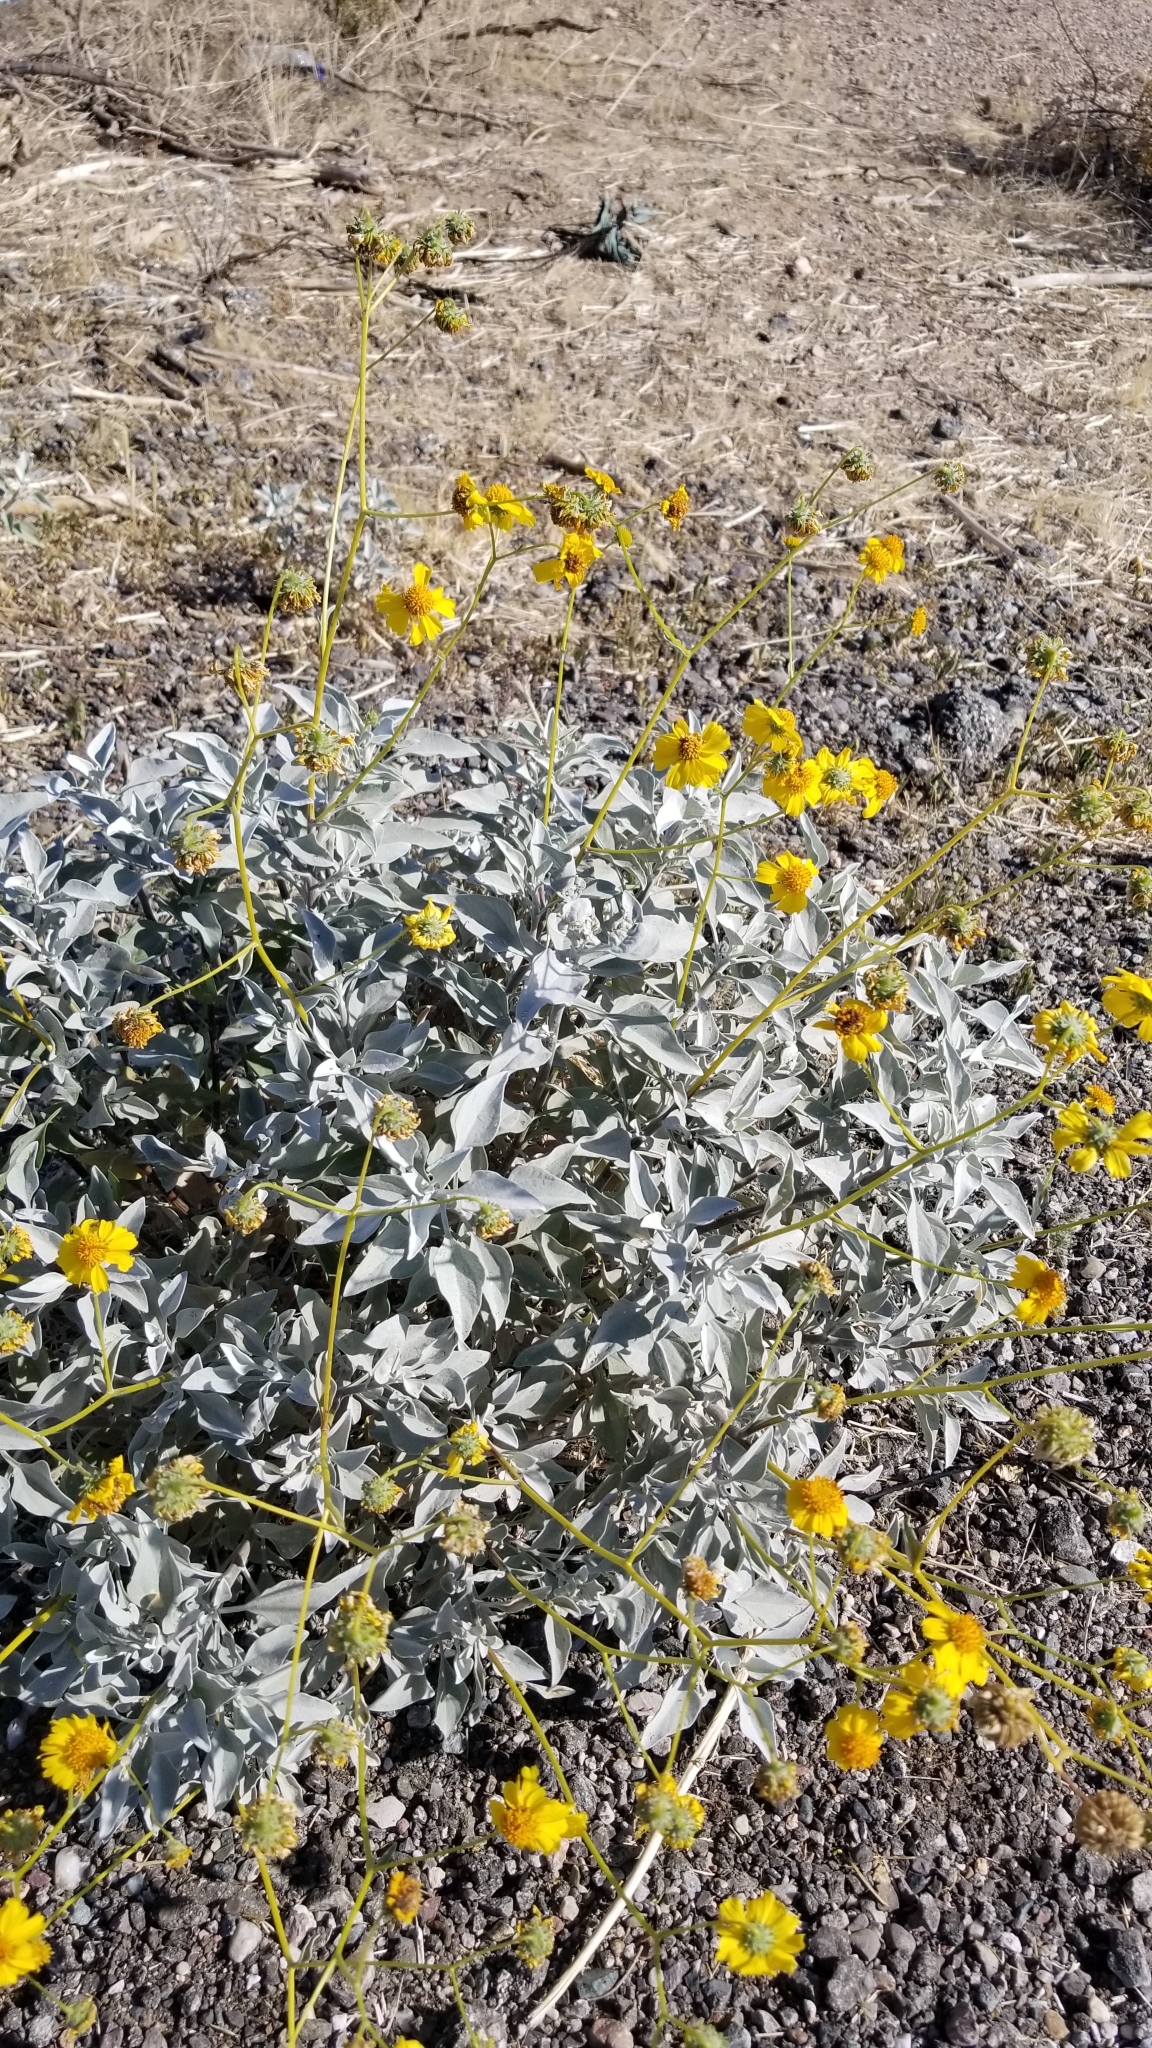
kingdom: Plantae
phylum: Tracheophyta
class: Magnoliopsida
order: Asterales
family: Asteraceae
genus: Encelia
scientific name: Encelia farinosa
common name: Brittlebush
